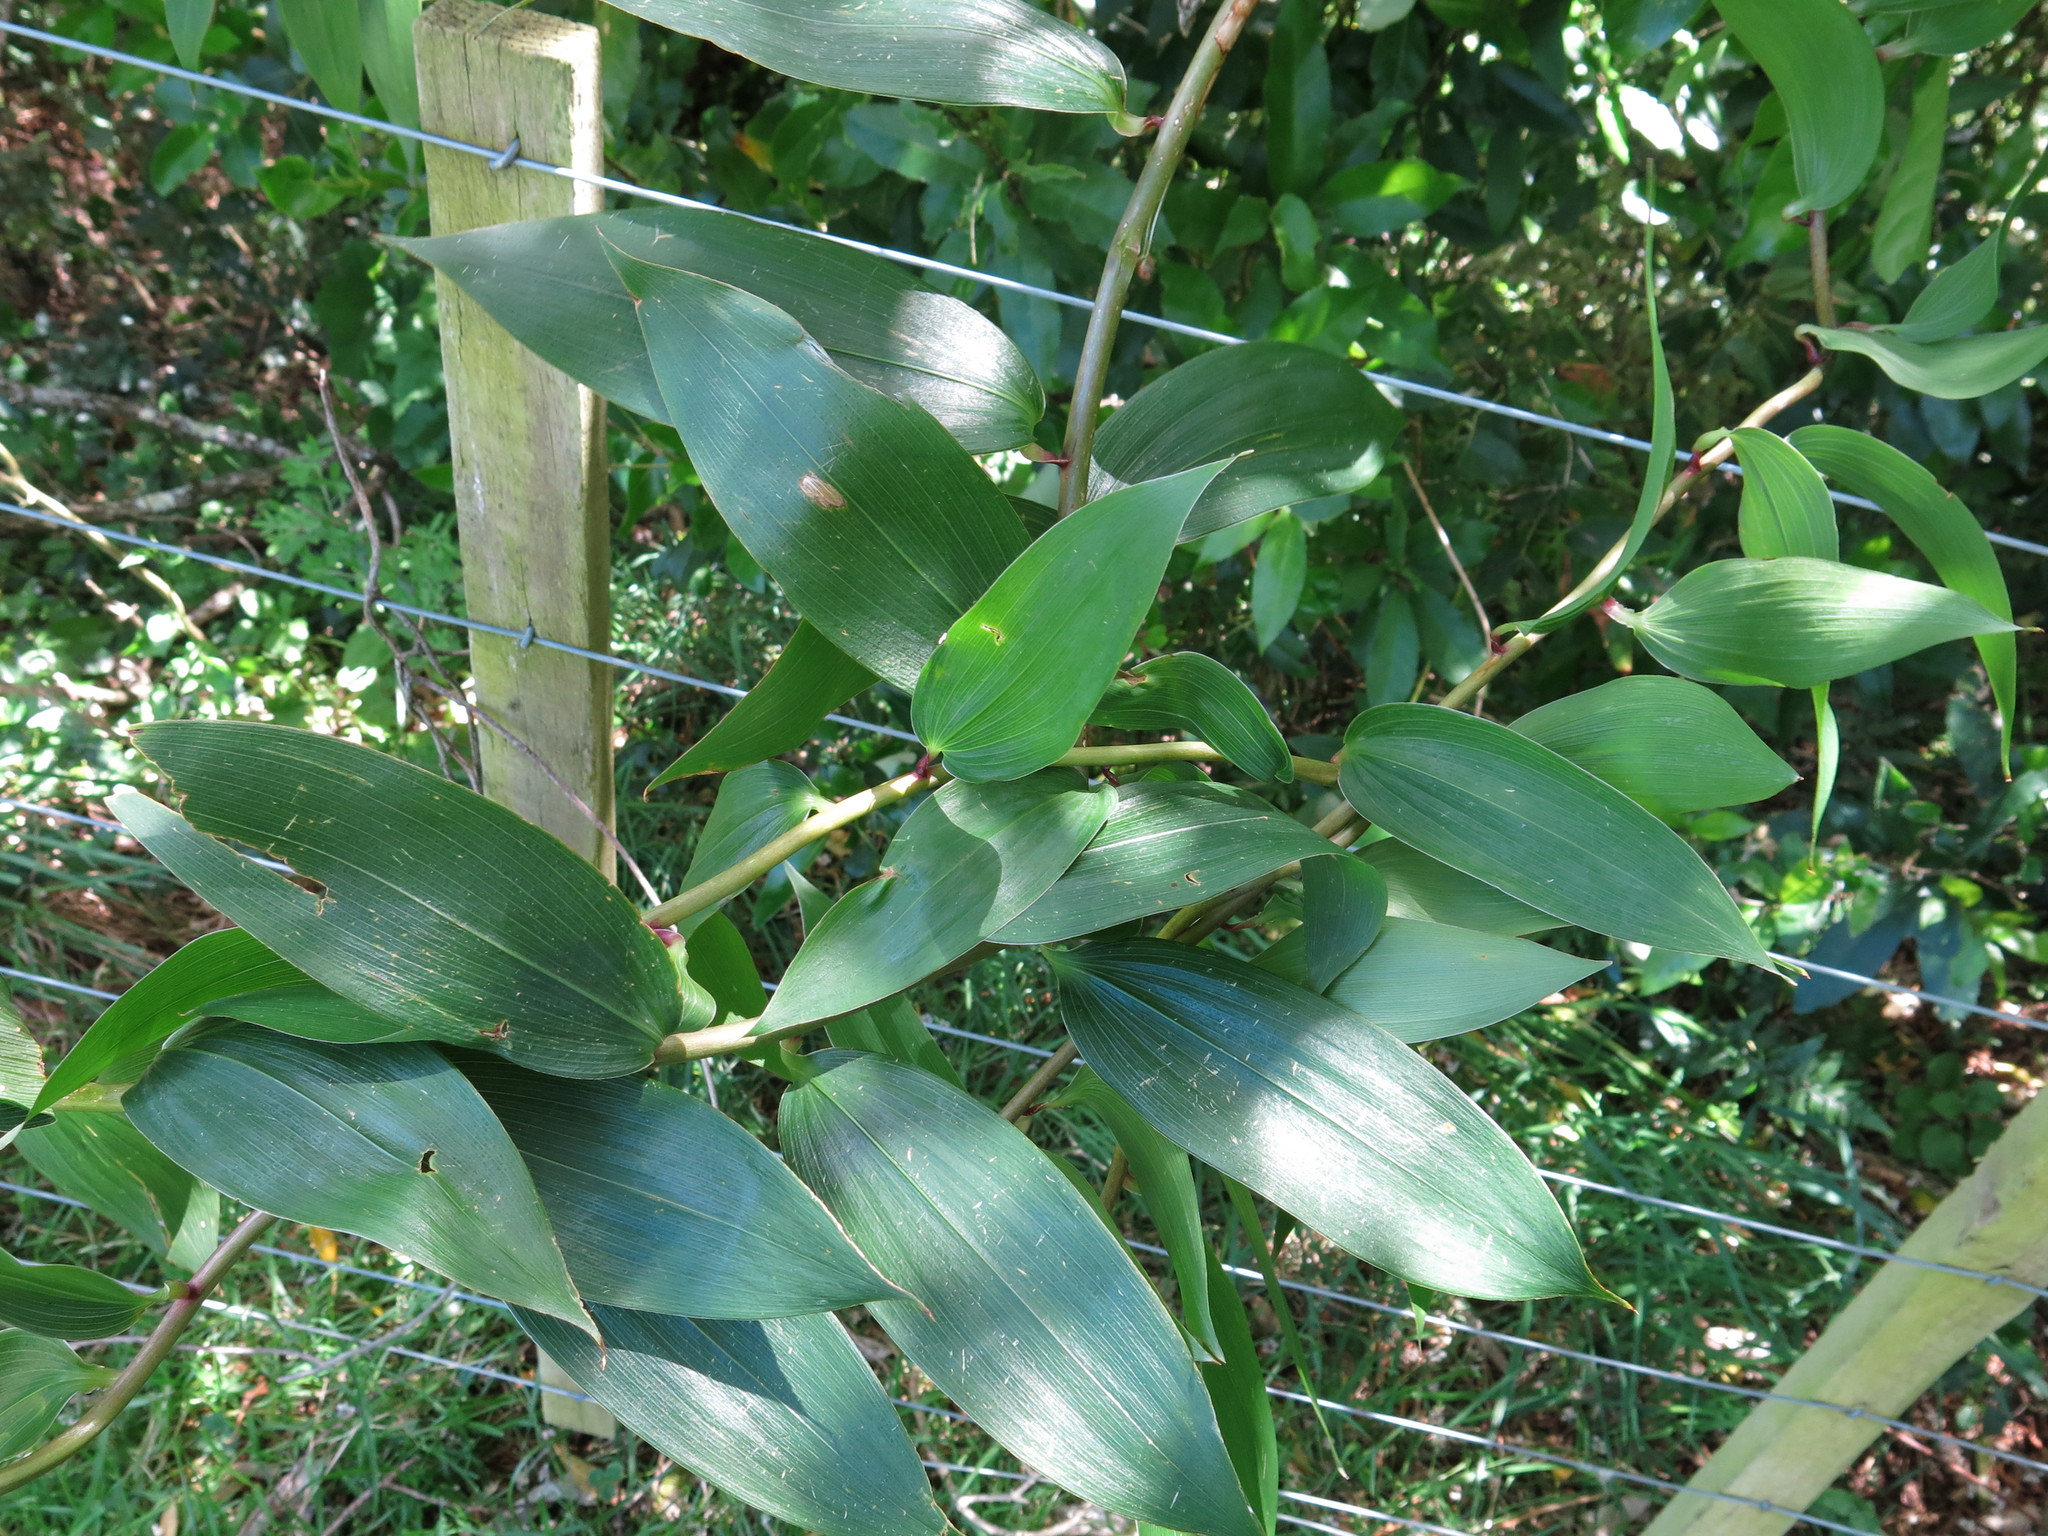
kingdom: Plantae
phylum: Tracheophyta
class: Liliopsida
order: Liliales
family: Alstroemeriaceae
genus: Bomarea
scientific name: Bomarea multiflora
